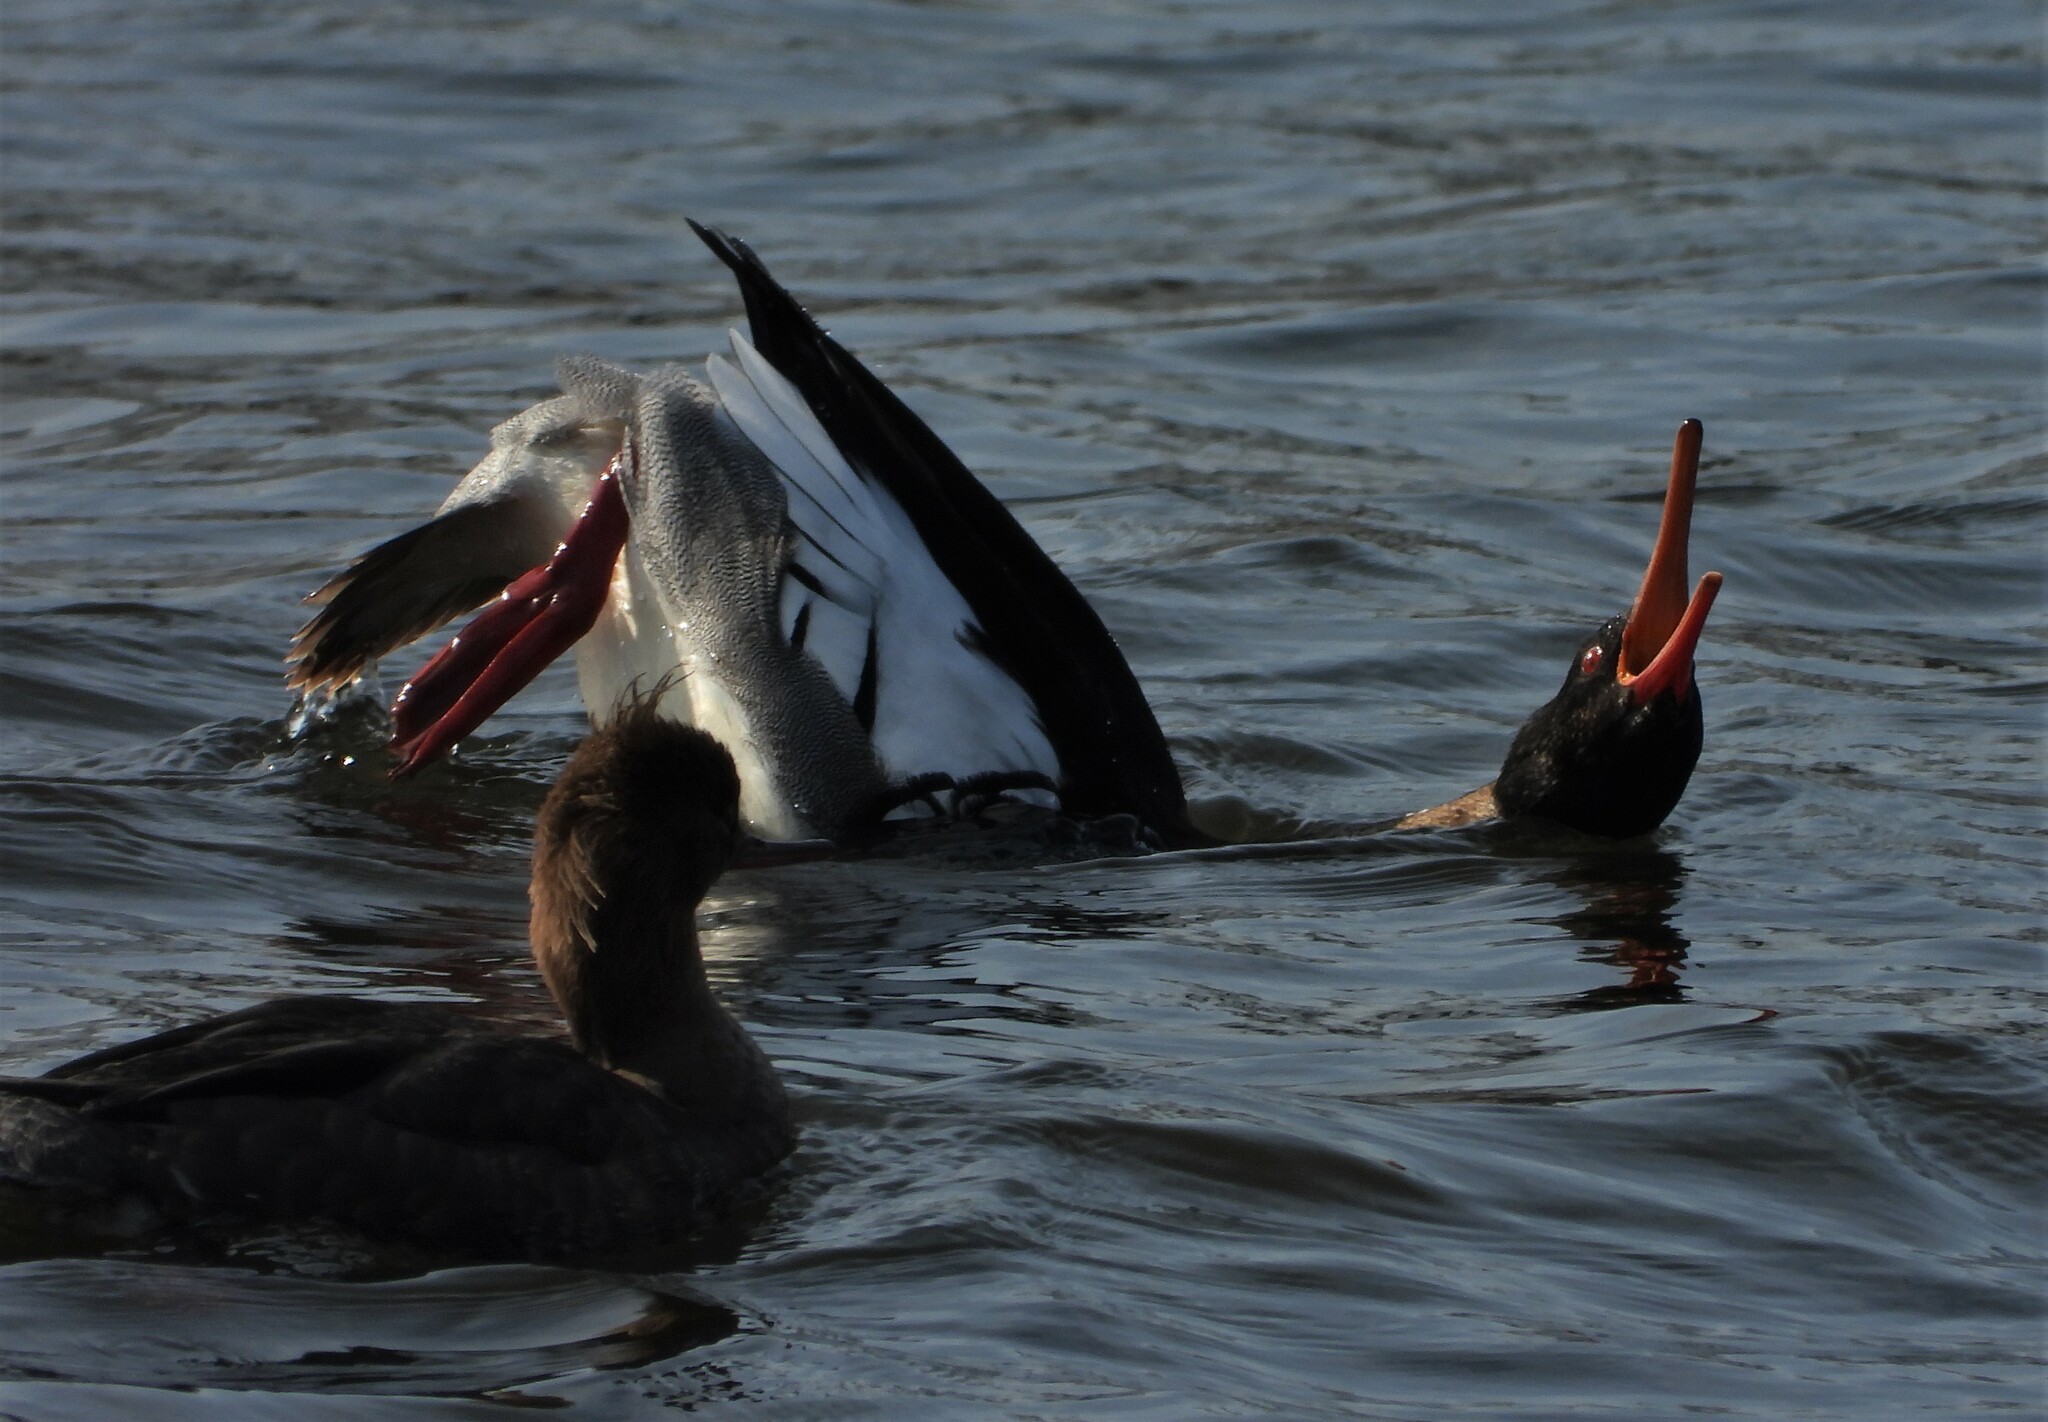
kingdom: Animalia
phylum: Chordata
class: Aves
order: Anseriformes
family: Anatidae
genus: Mergus
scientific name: Mergus serrator
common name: Red-breasted merganser
